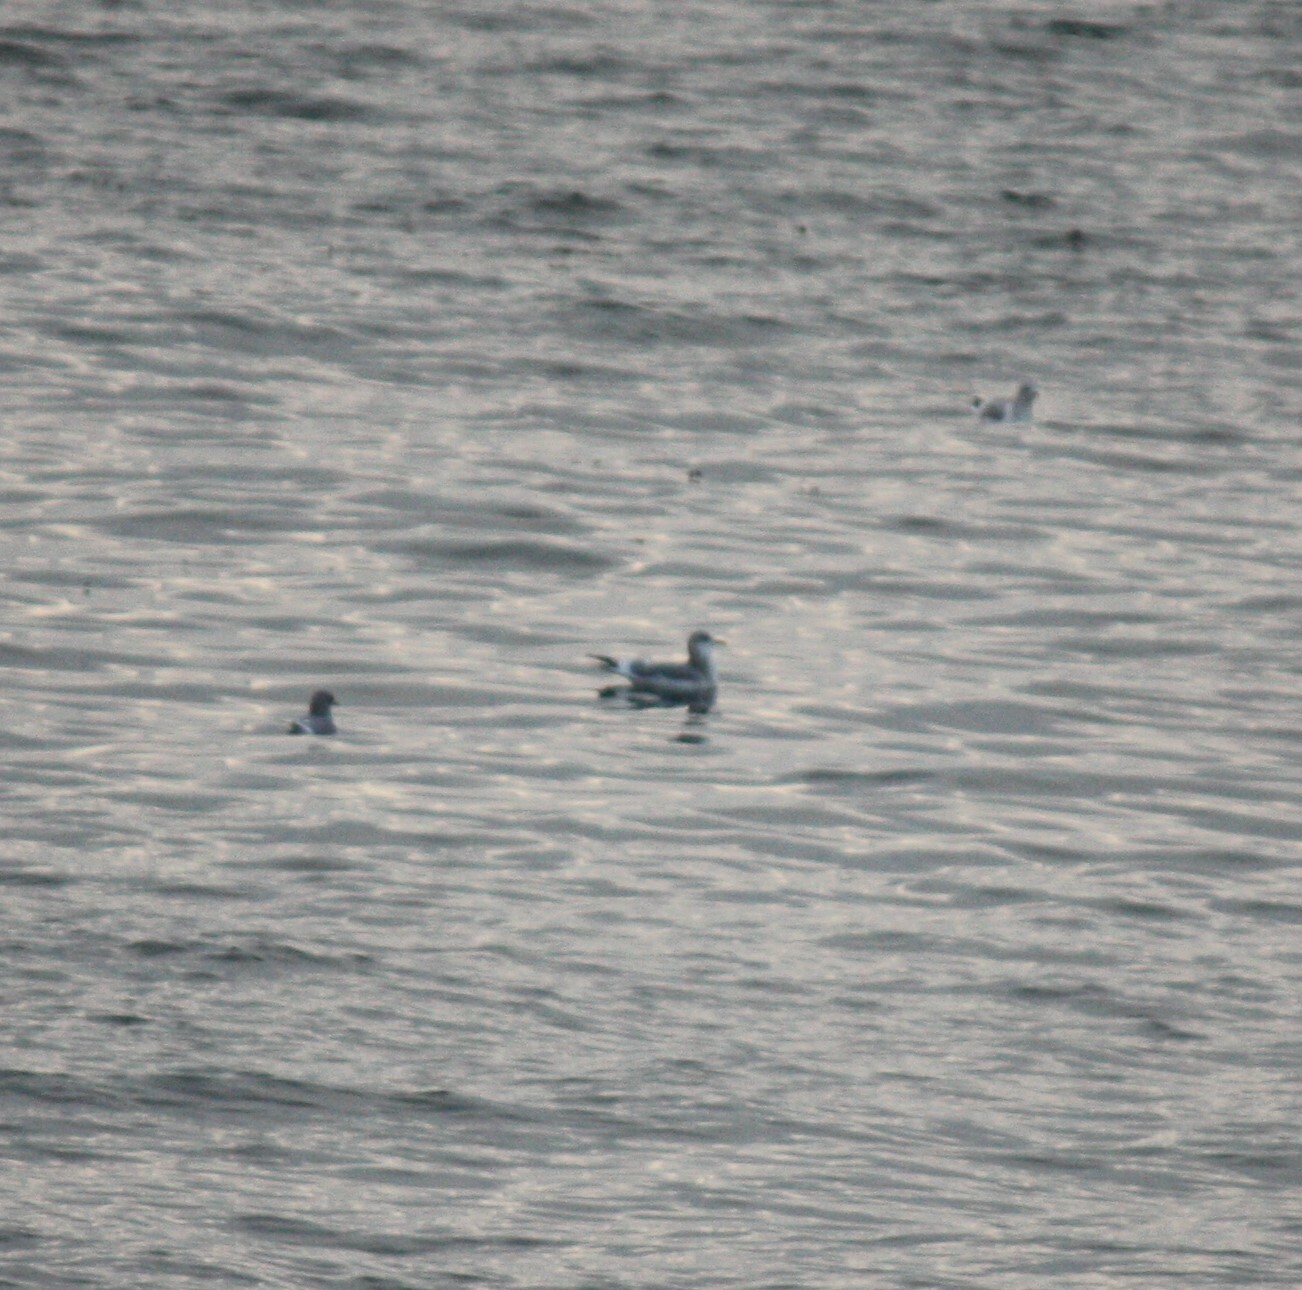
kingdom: Animalia
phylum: Chordata
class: Aves
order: Charadriiformes
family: Laridae
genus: Larus
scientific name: Larus brachyrhynchus
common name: Short-billed gull
